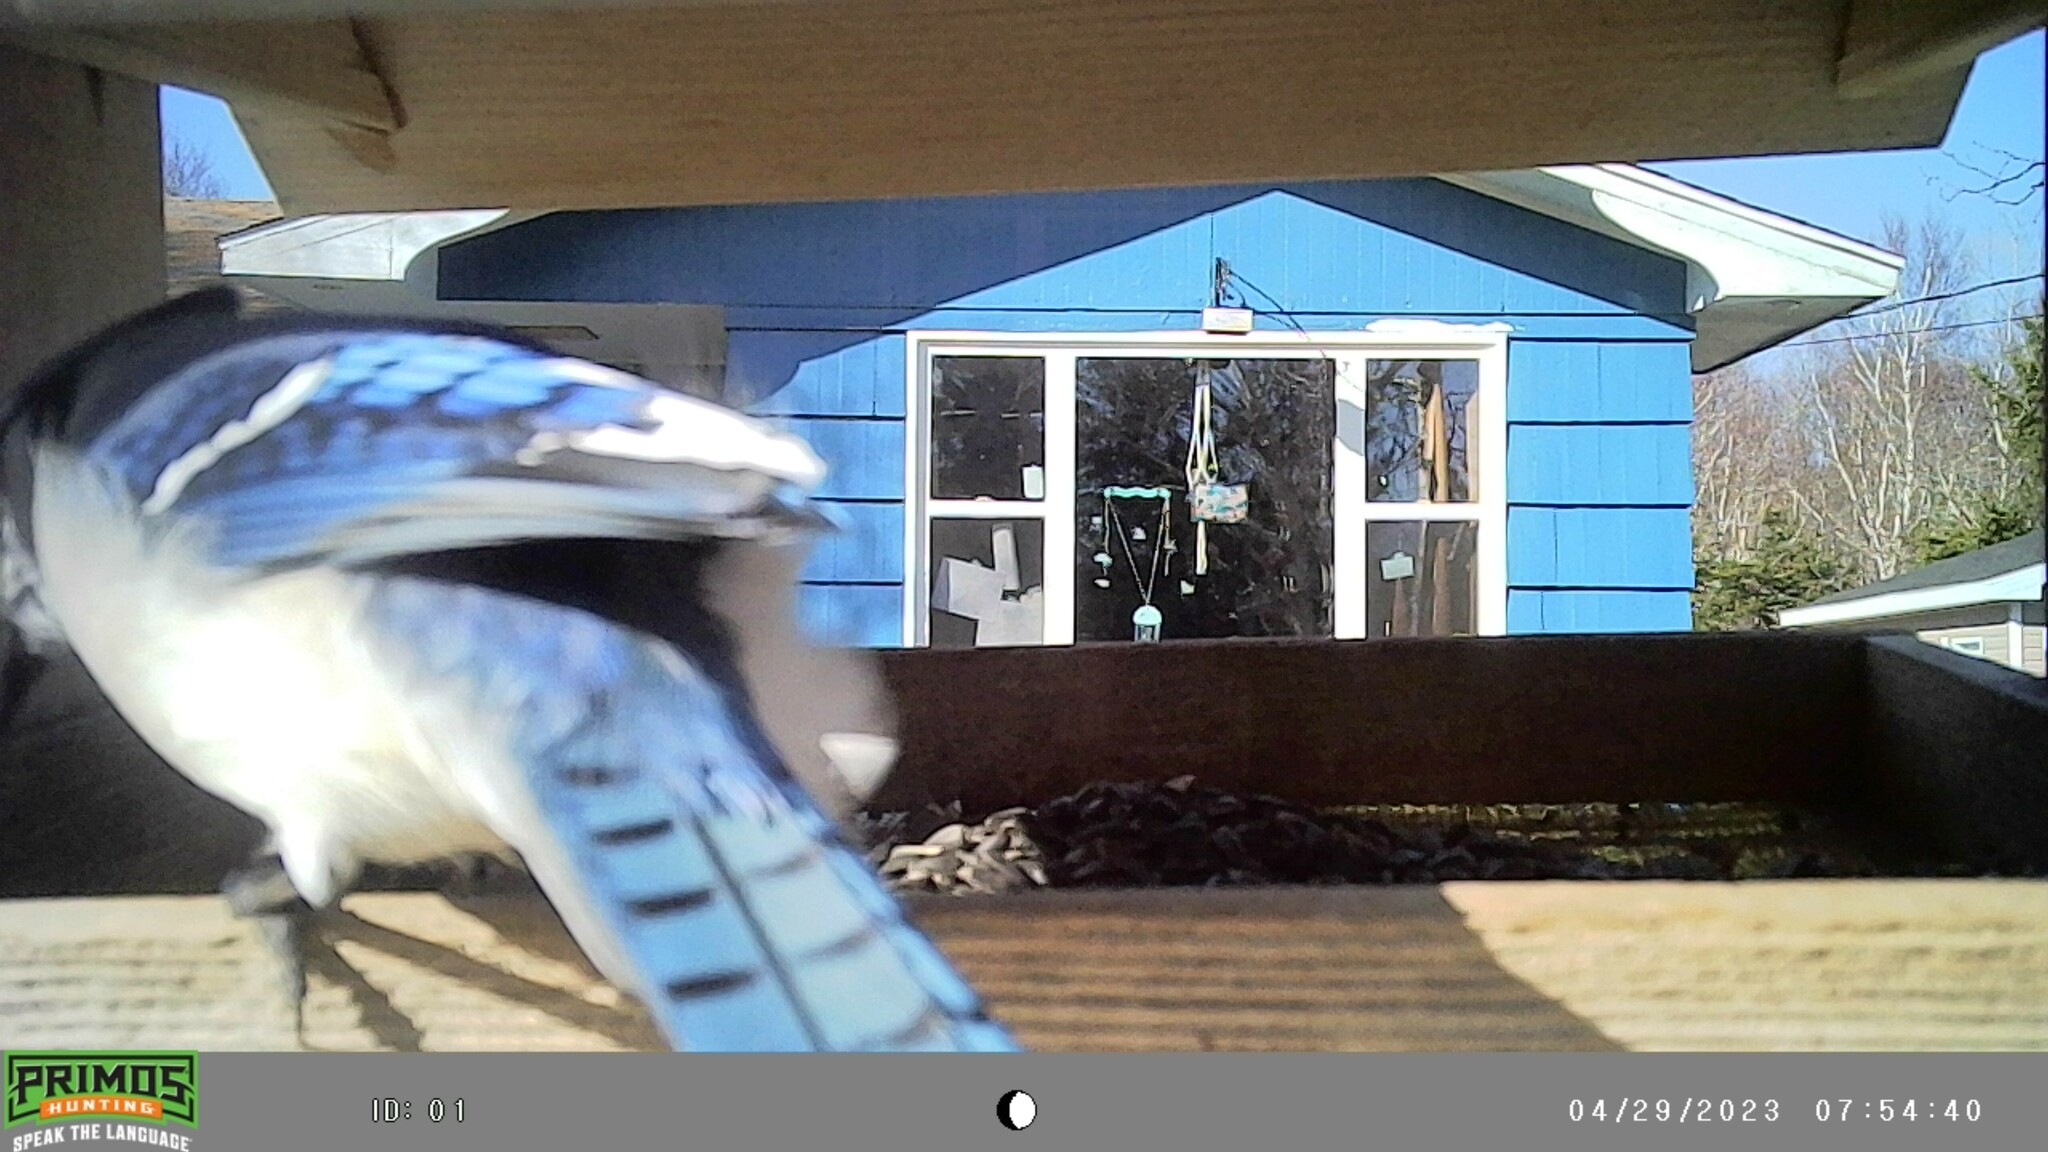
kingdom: Animalia
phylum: Chordata
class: Aves
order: Passeriformes
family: Corvidae
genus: Cyanocitta
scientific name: Cyanocitta cristata
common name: Blue jay
